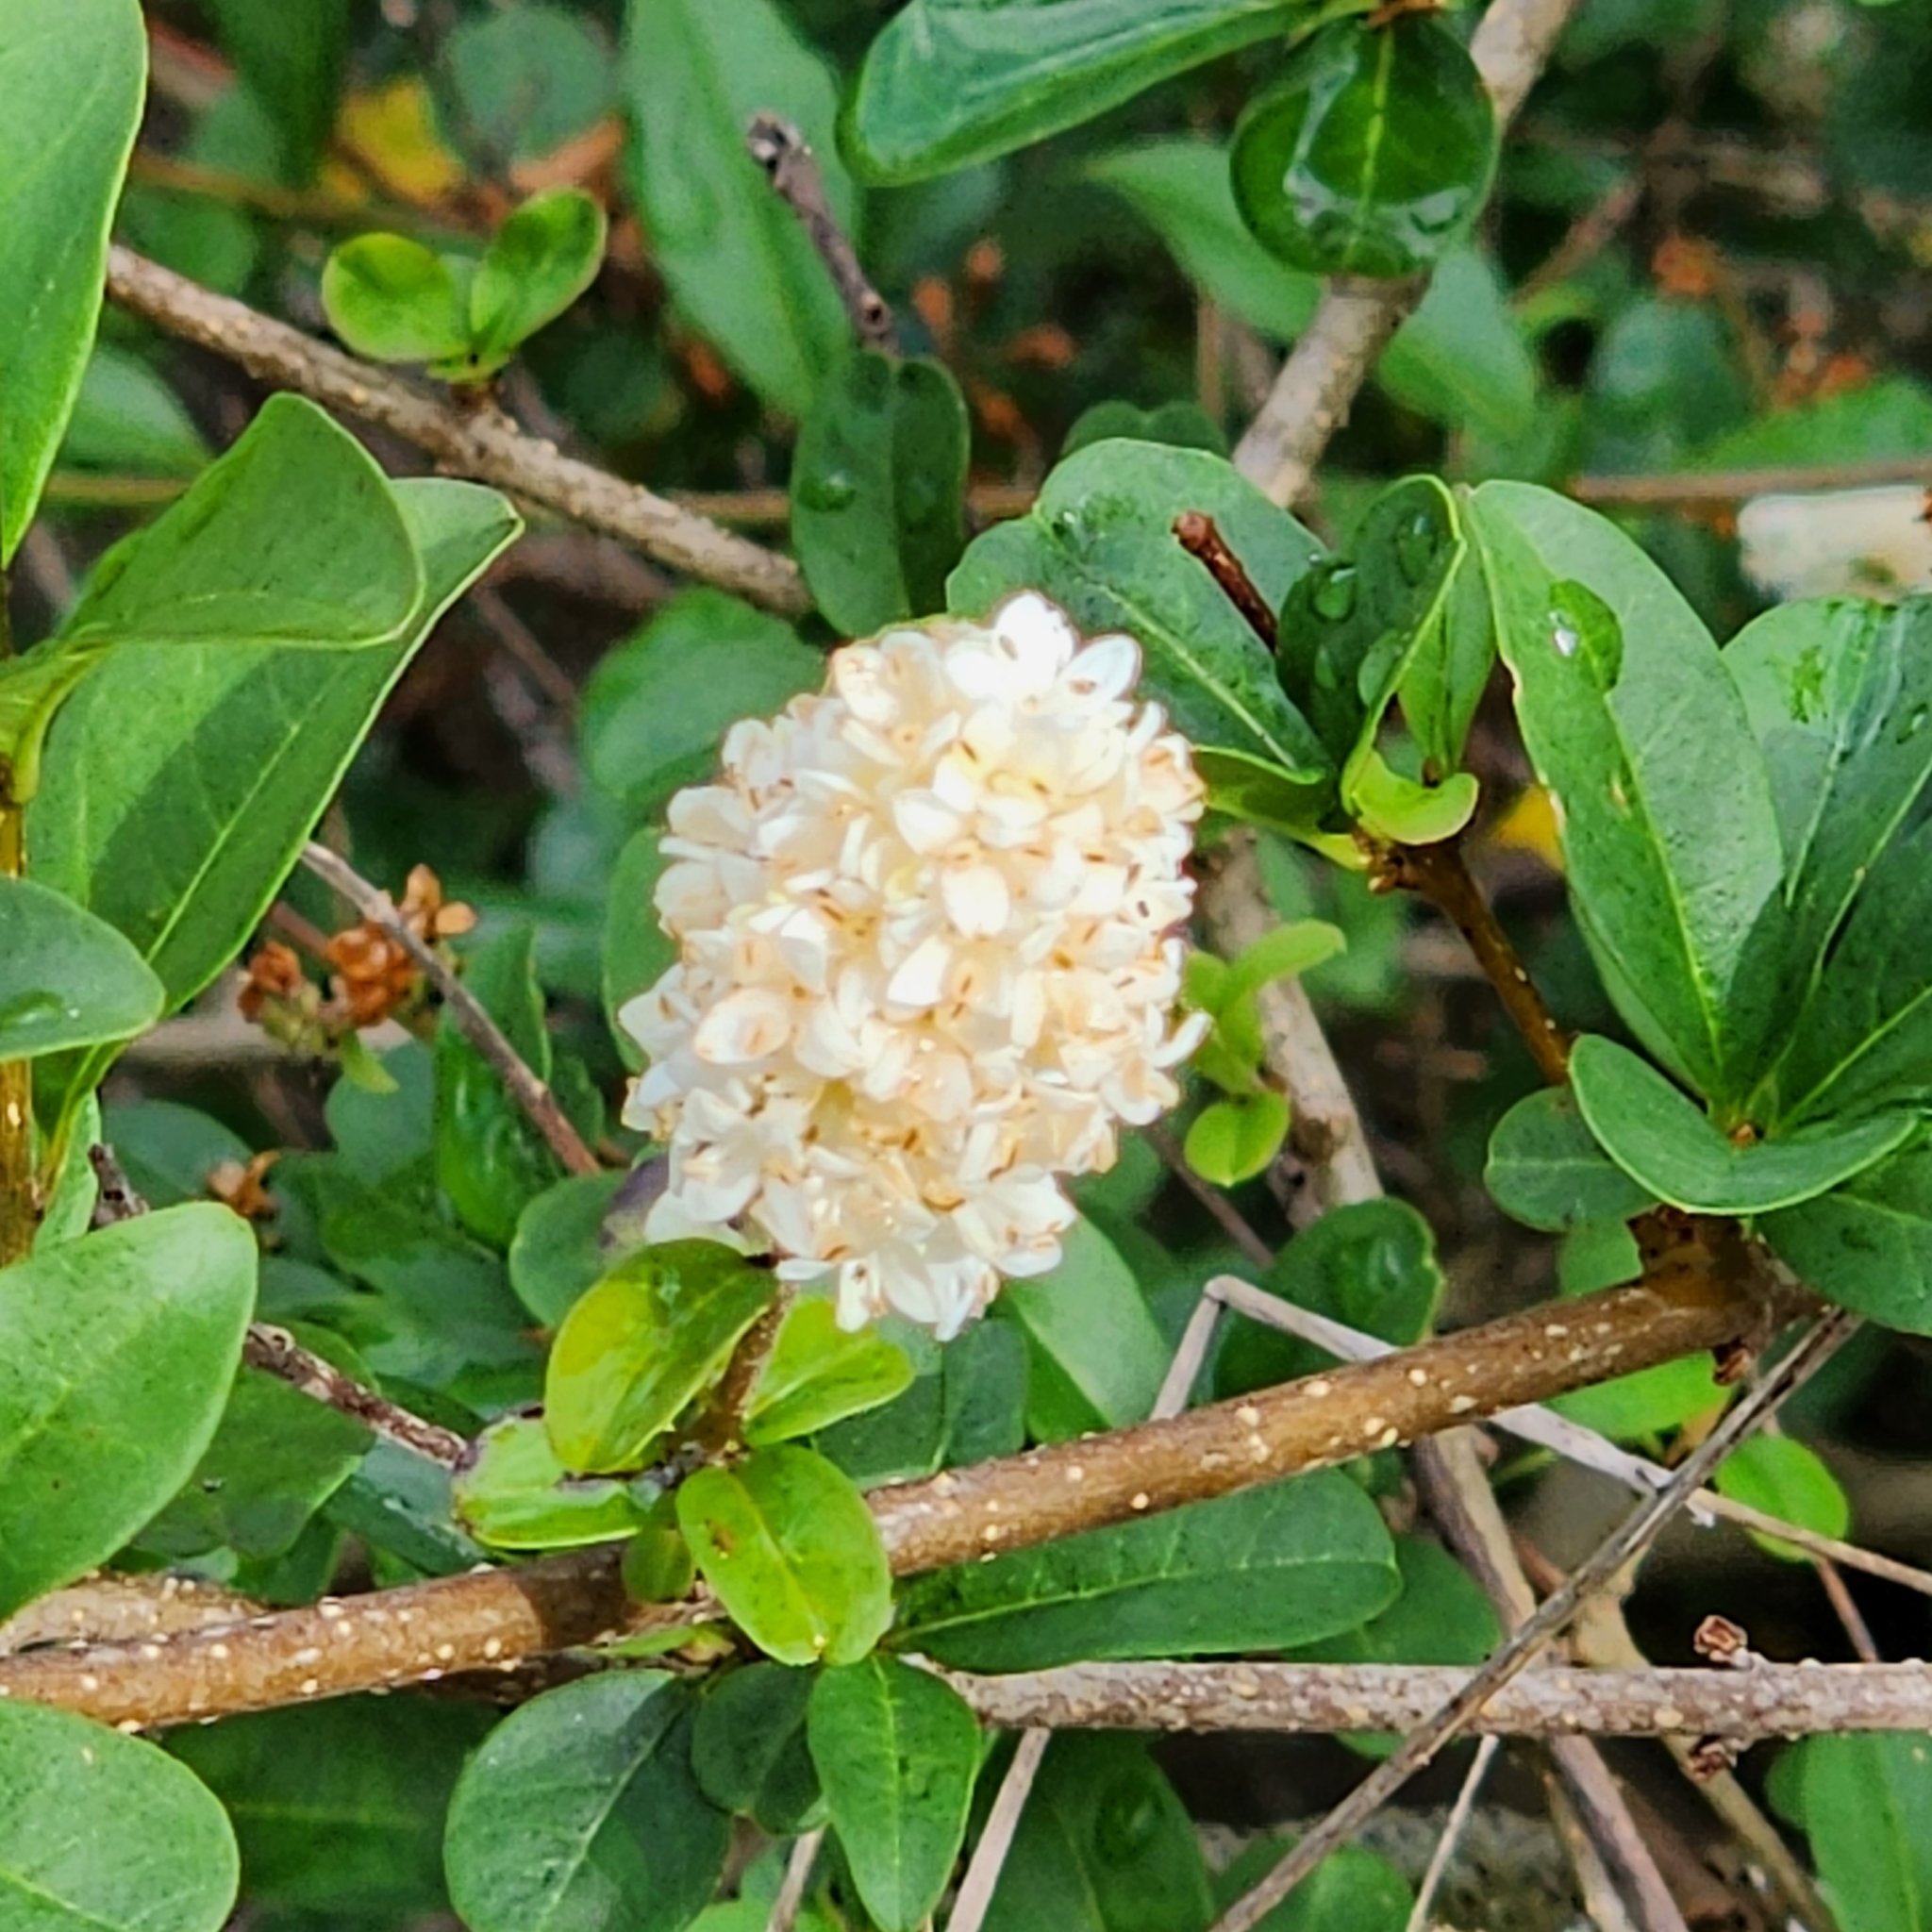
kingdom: Plantae
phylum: Tracheophyta
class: Magnoliopsida
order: Lamiales
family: Oleaceae
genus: Ligustrum
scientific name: Ligustrum vulgare
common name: Wild privet
